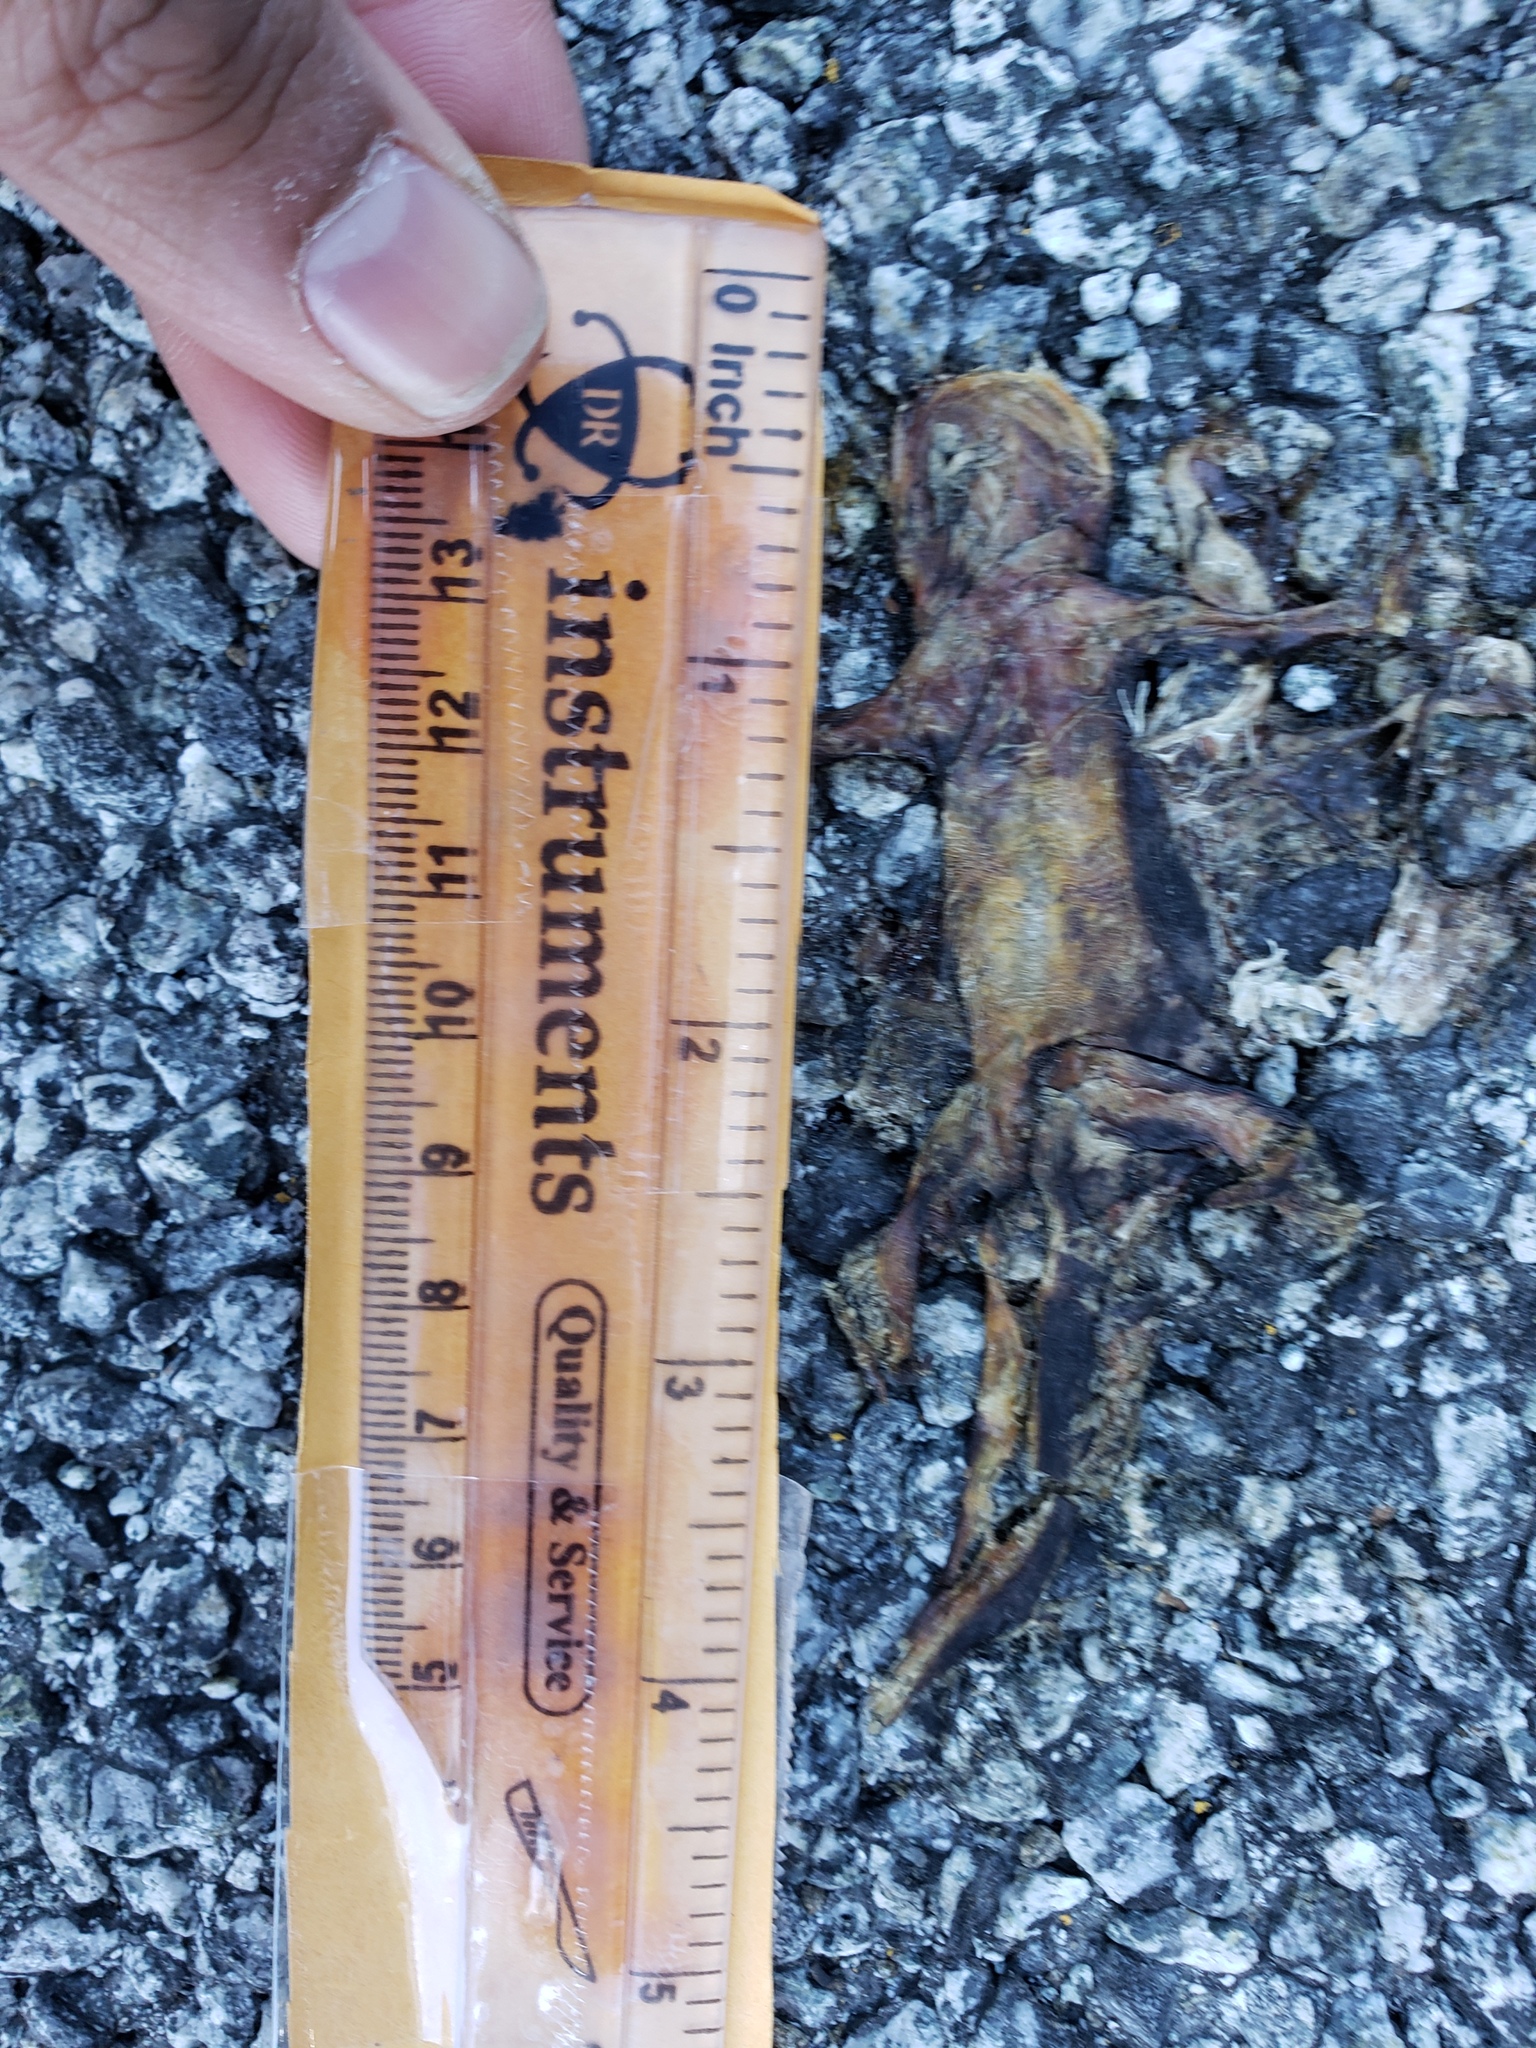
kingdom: Animalia
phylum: Chordata
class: Amphibia
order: Caudata
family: Salamandridae
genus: Taricha
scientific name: Taricha
